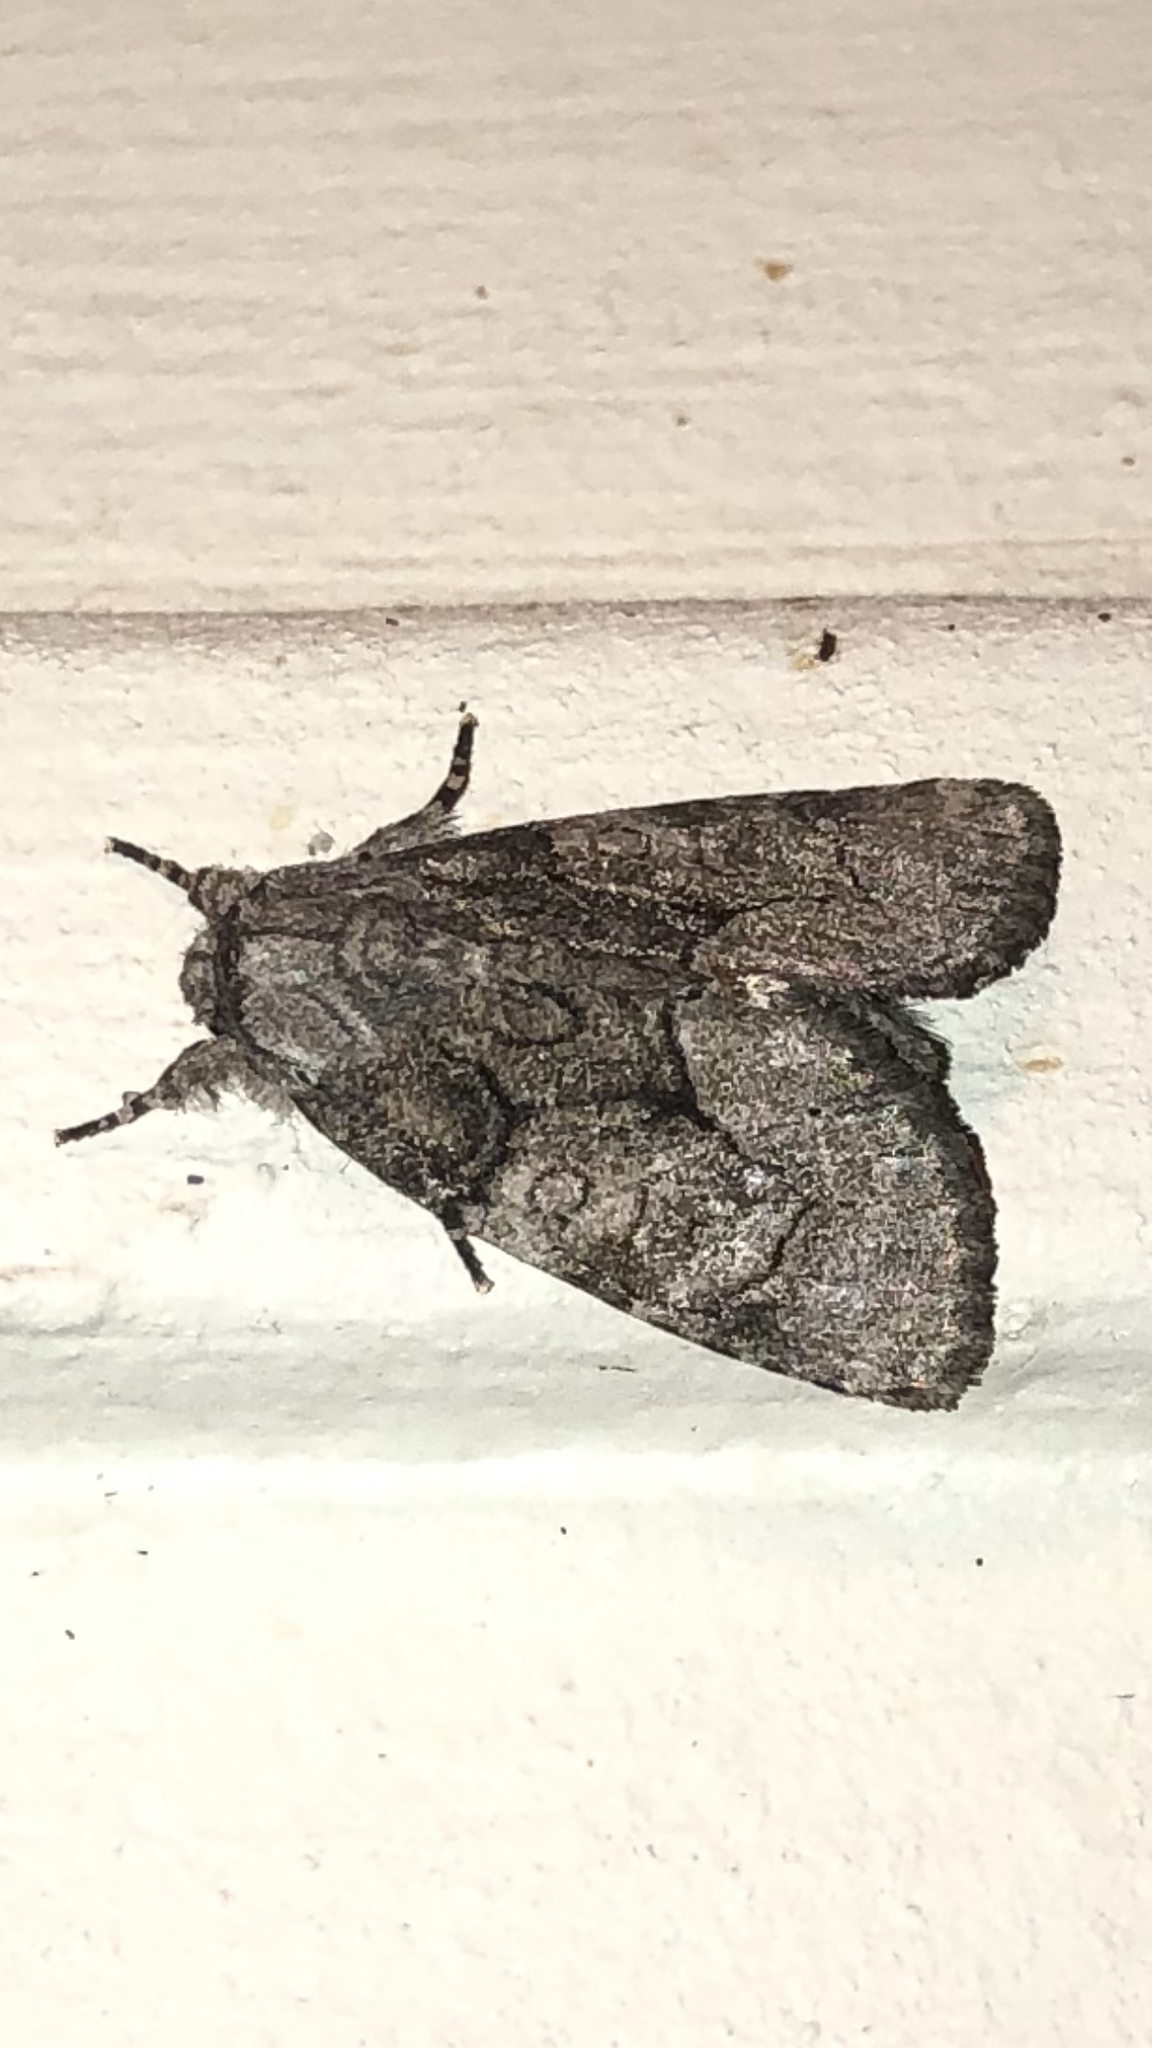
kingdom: Animalia
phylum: Arthropoda
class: Insecta
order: Lepidoptera
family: Noctuidae
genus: Raphia
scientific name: Raphia frater
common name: Brother
